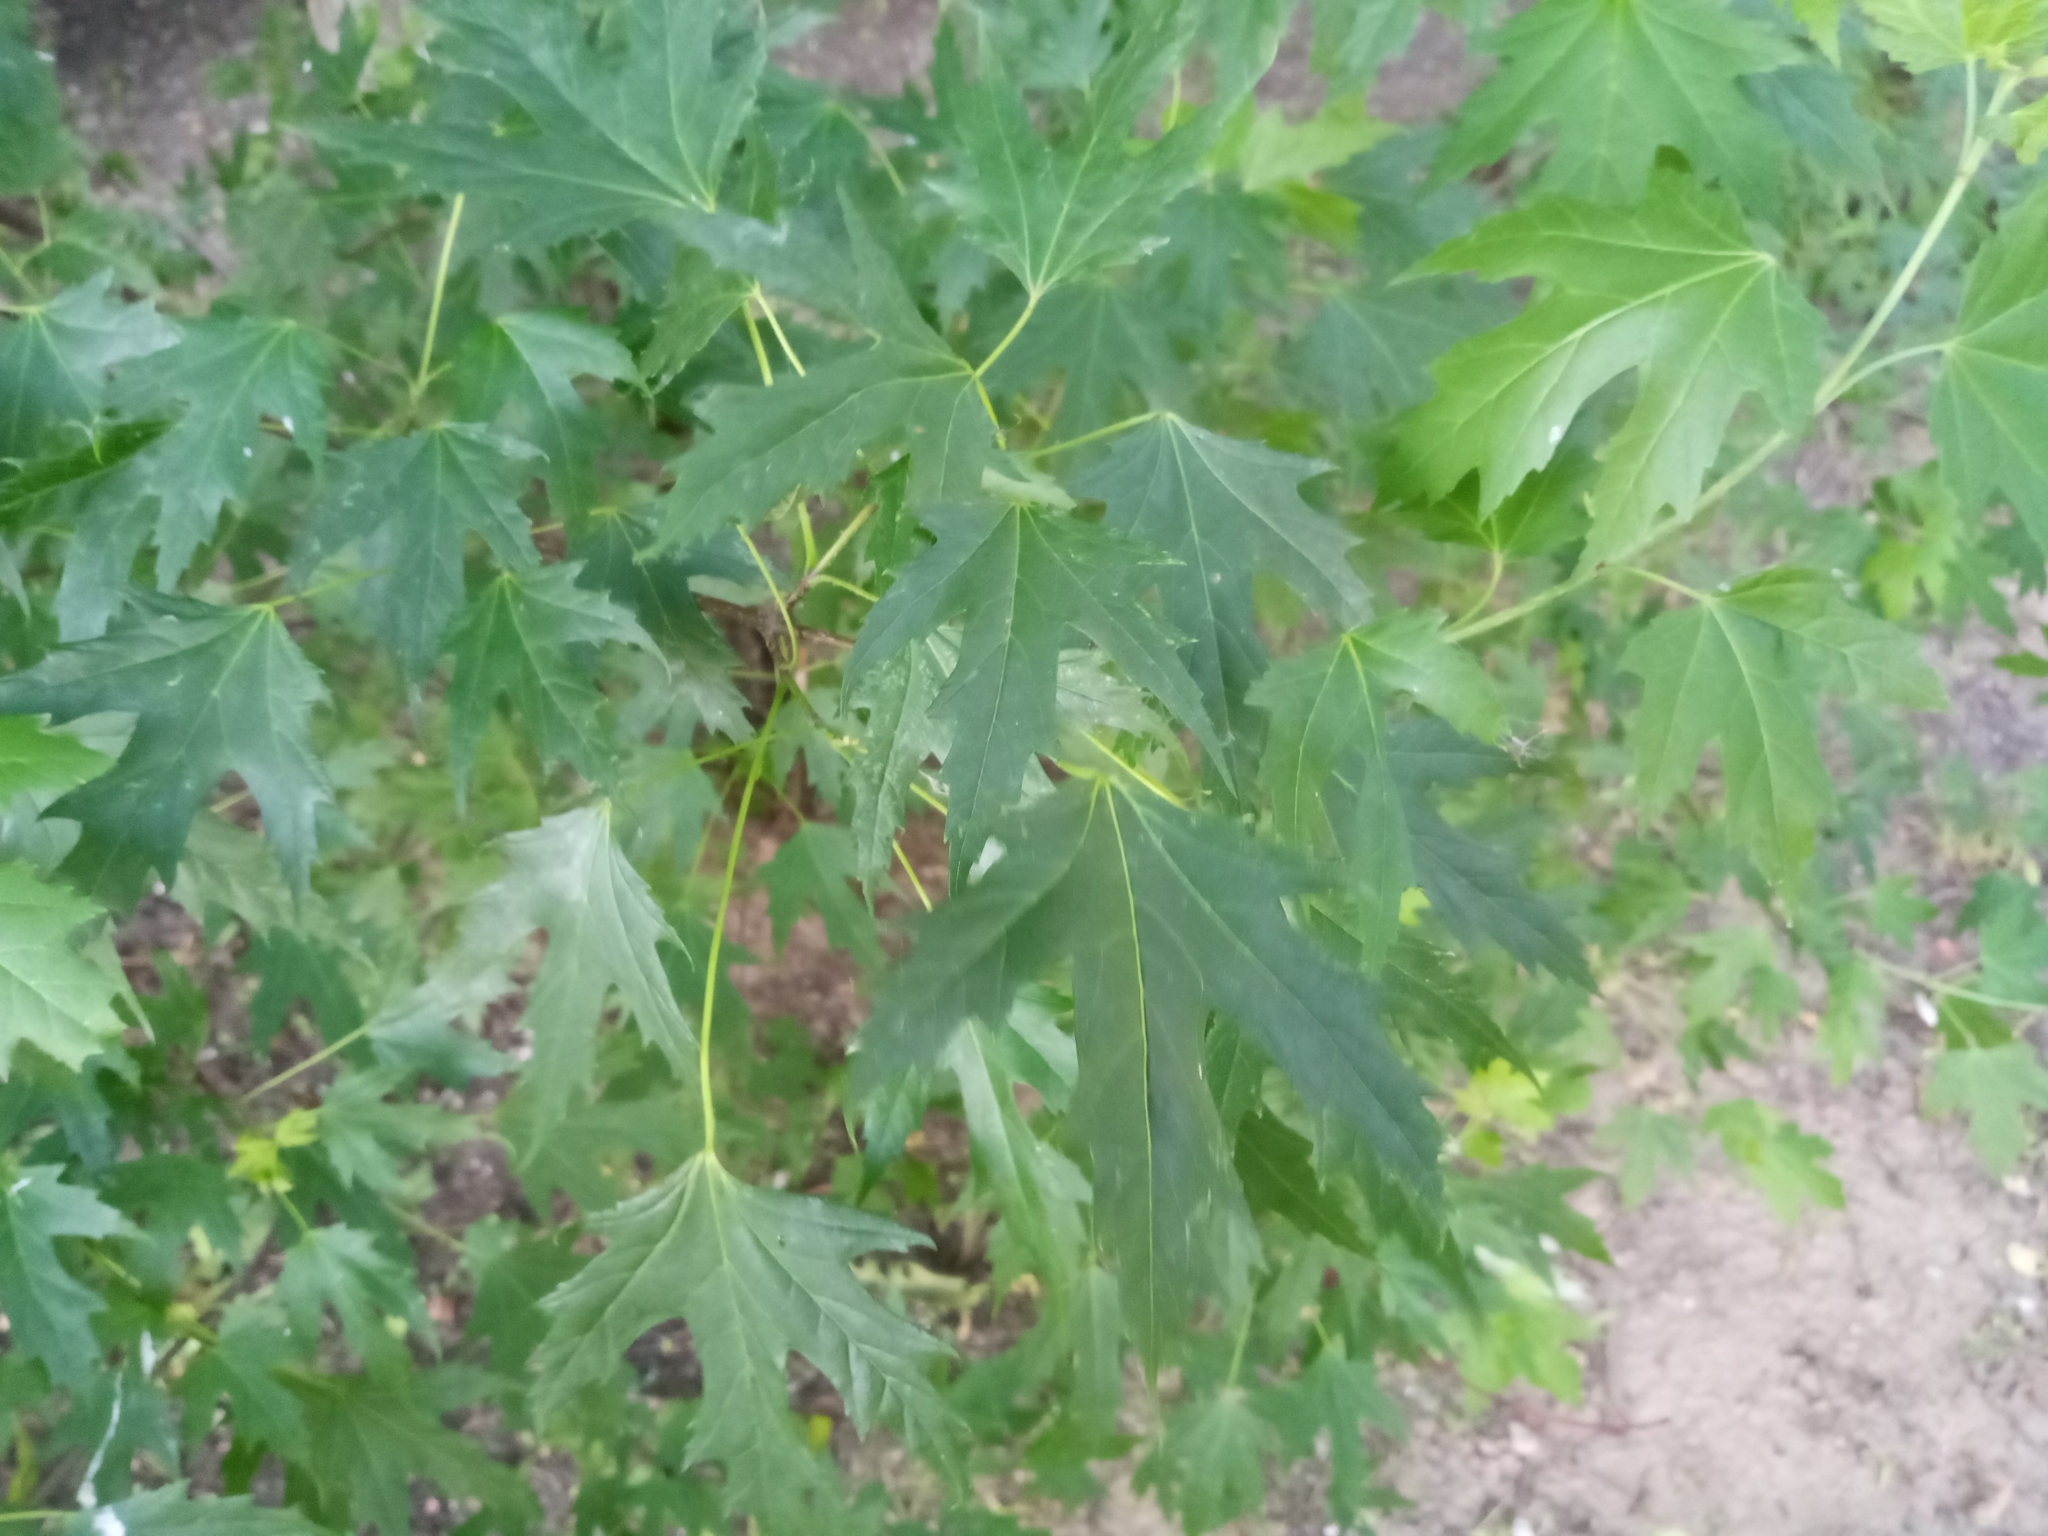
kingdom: Plantae
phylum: Tracheophyta
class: Magnoliopsida
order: Sapindales
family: Sapindaceae
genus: Acer
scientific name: Acer saccharinum
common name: Silver maple
